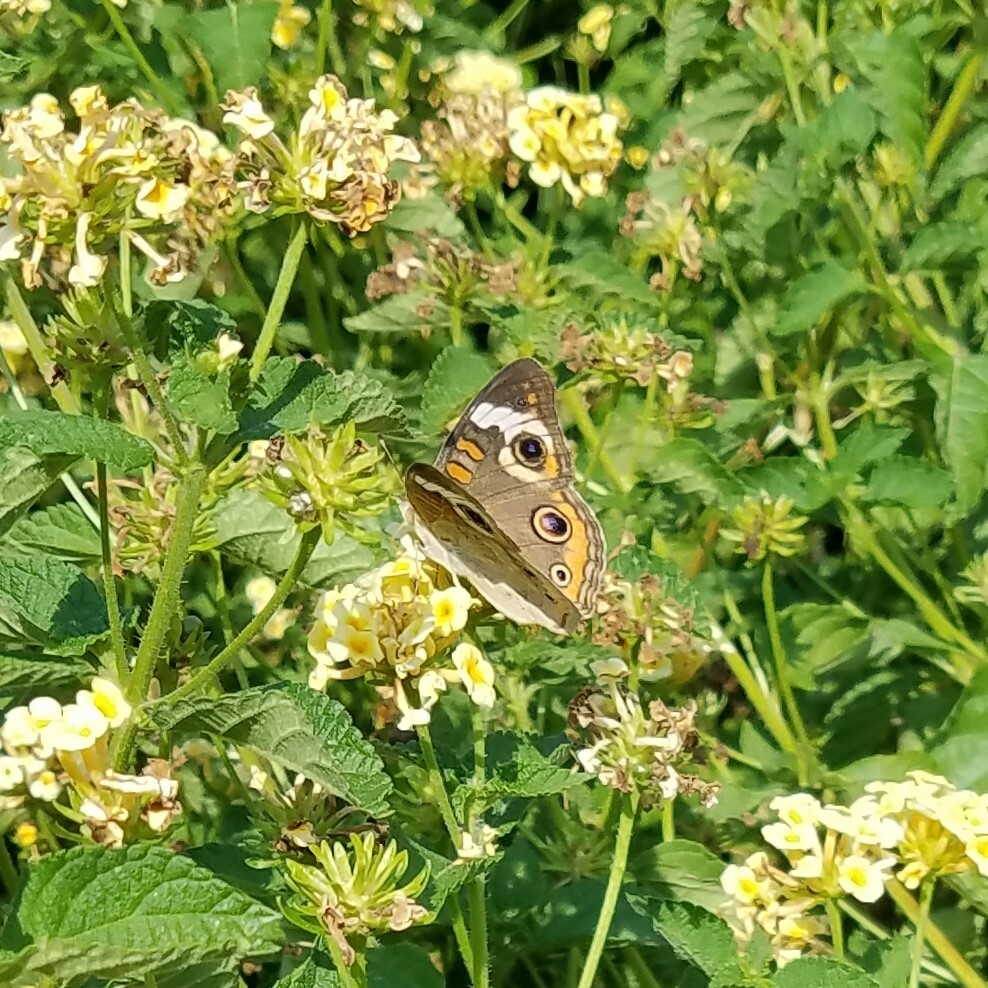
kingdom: Animalia
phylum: Arthropoda
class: Insecta
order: Lepidoptera
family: Nymphalidae
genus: Junonia
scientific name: Junonia coenia
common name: Common buckeye
